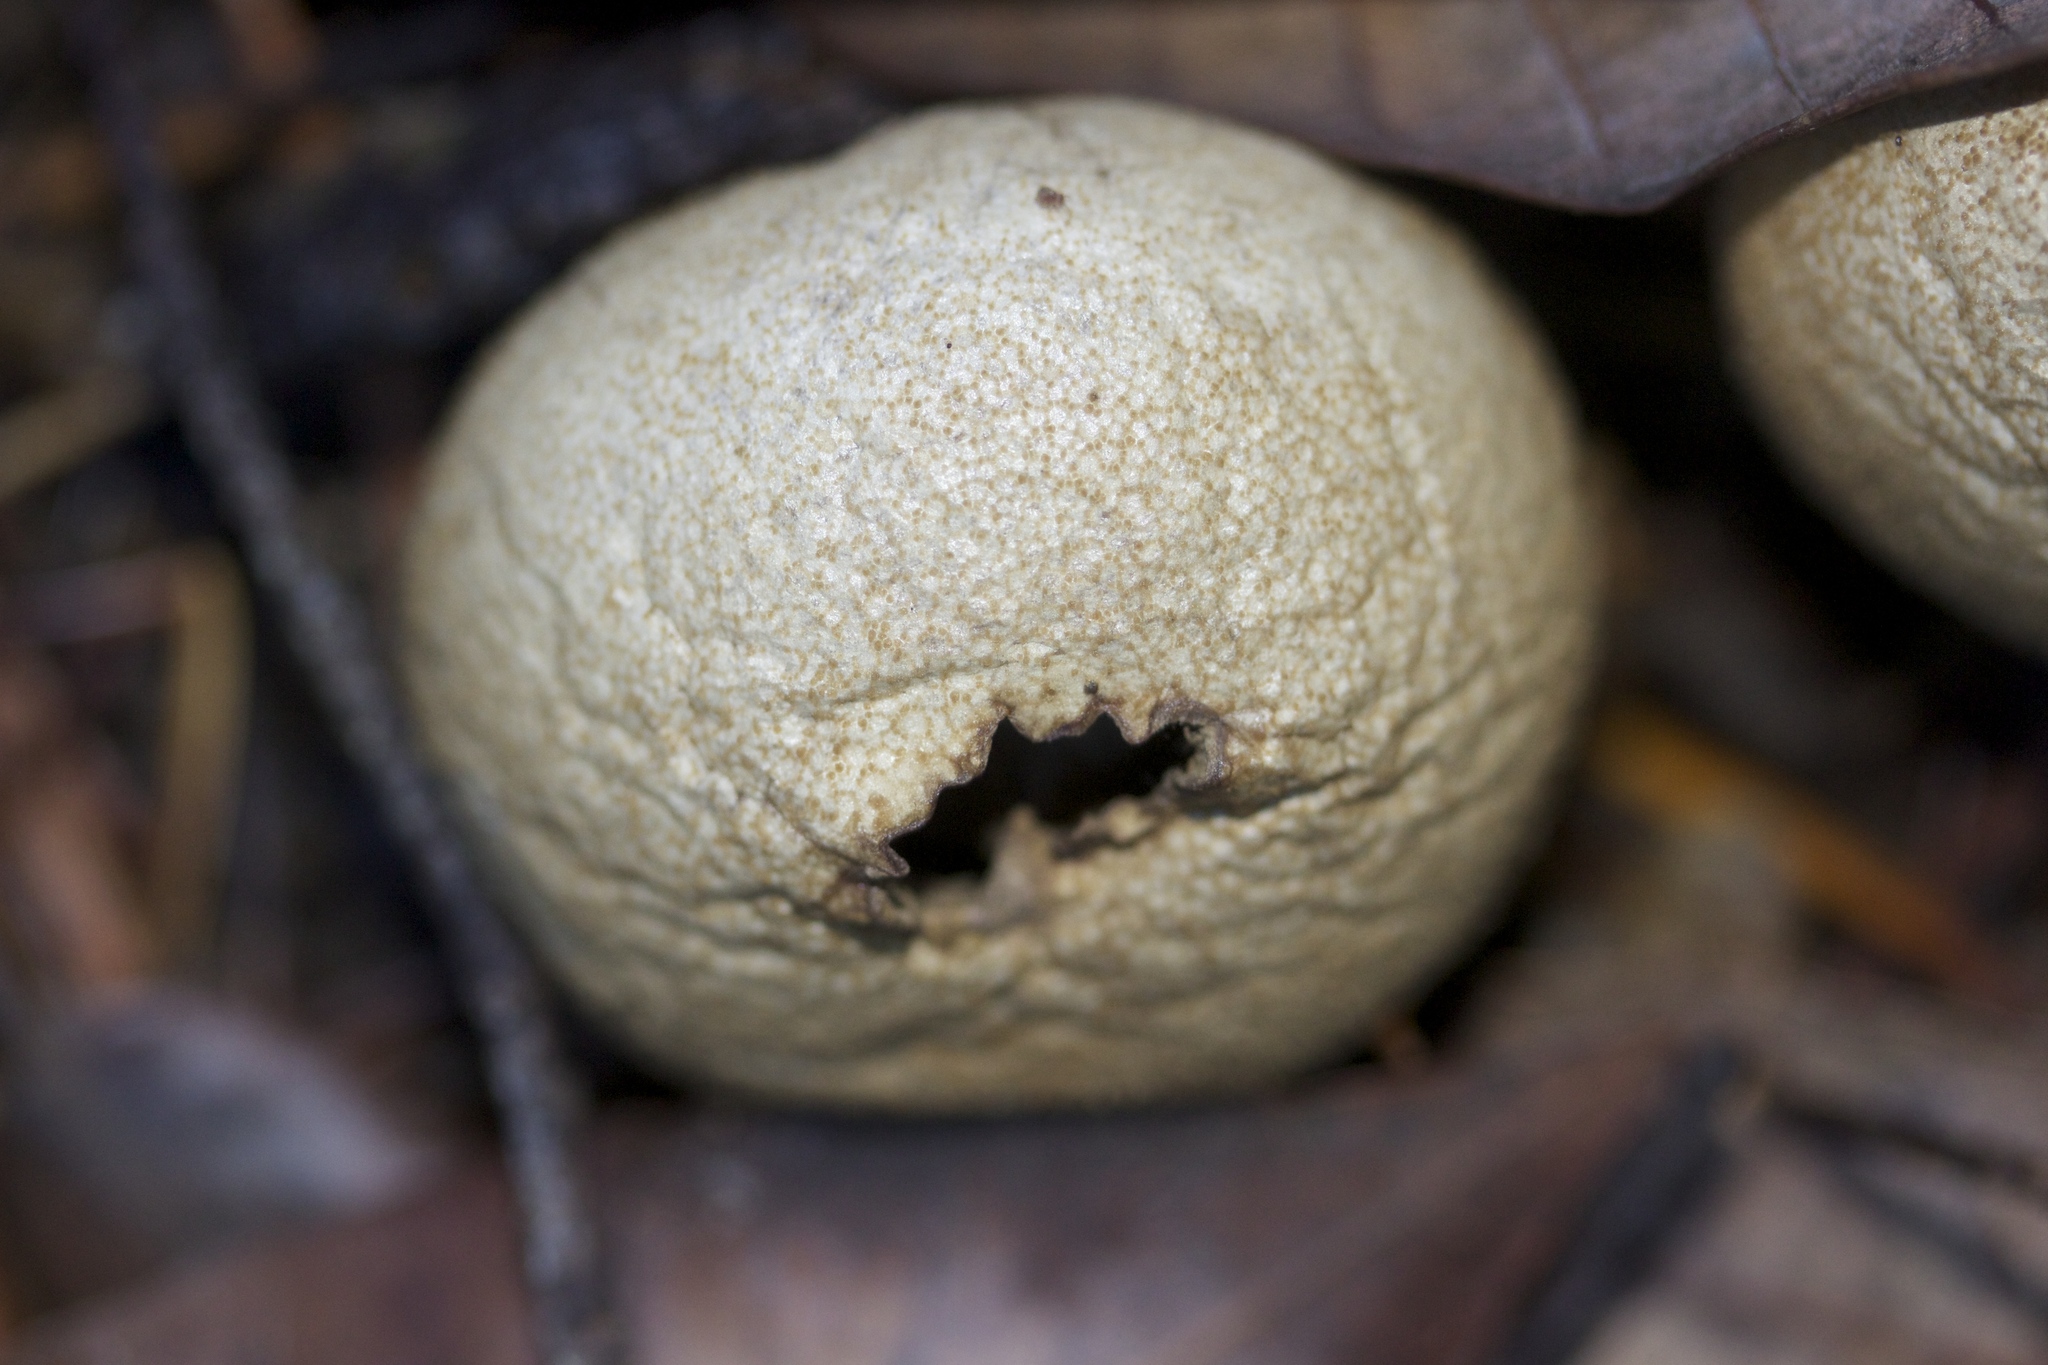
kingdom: Fungi
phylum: Basidiomycota
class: Agaricomycetes
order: Agaricales
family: Lycoperdaceae
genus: Lycoperdon
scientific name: Lycoperdon perlatum
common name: Common puffball
